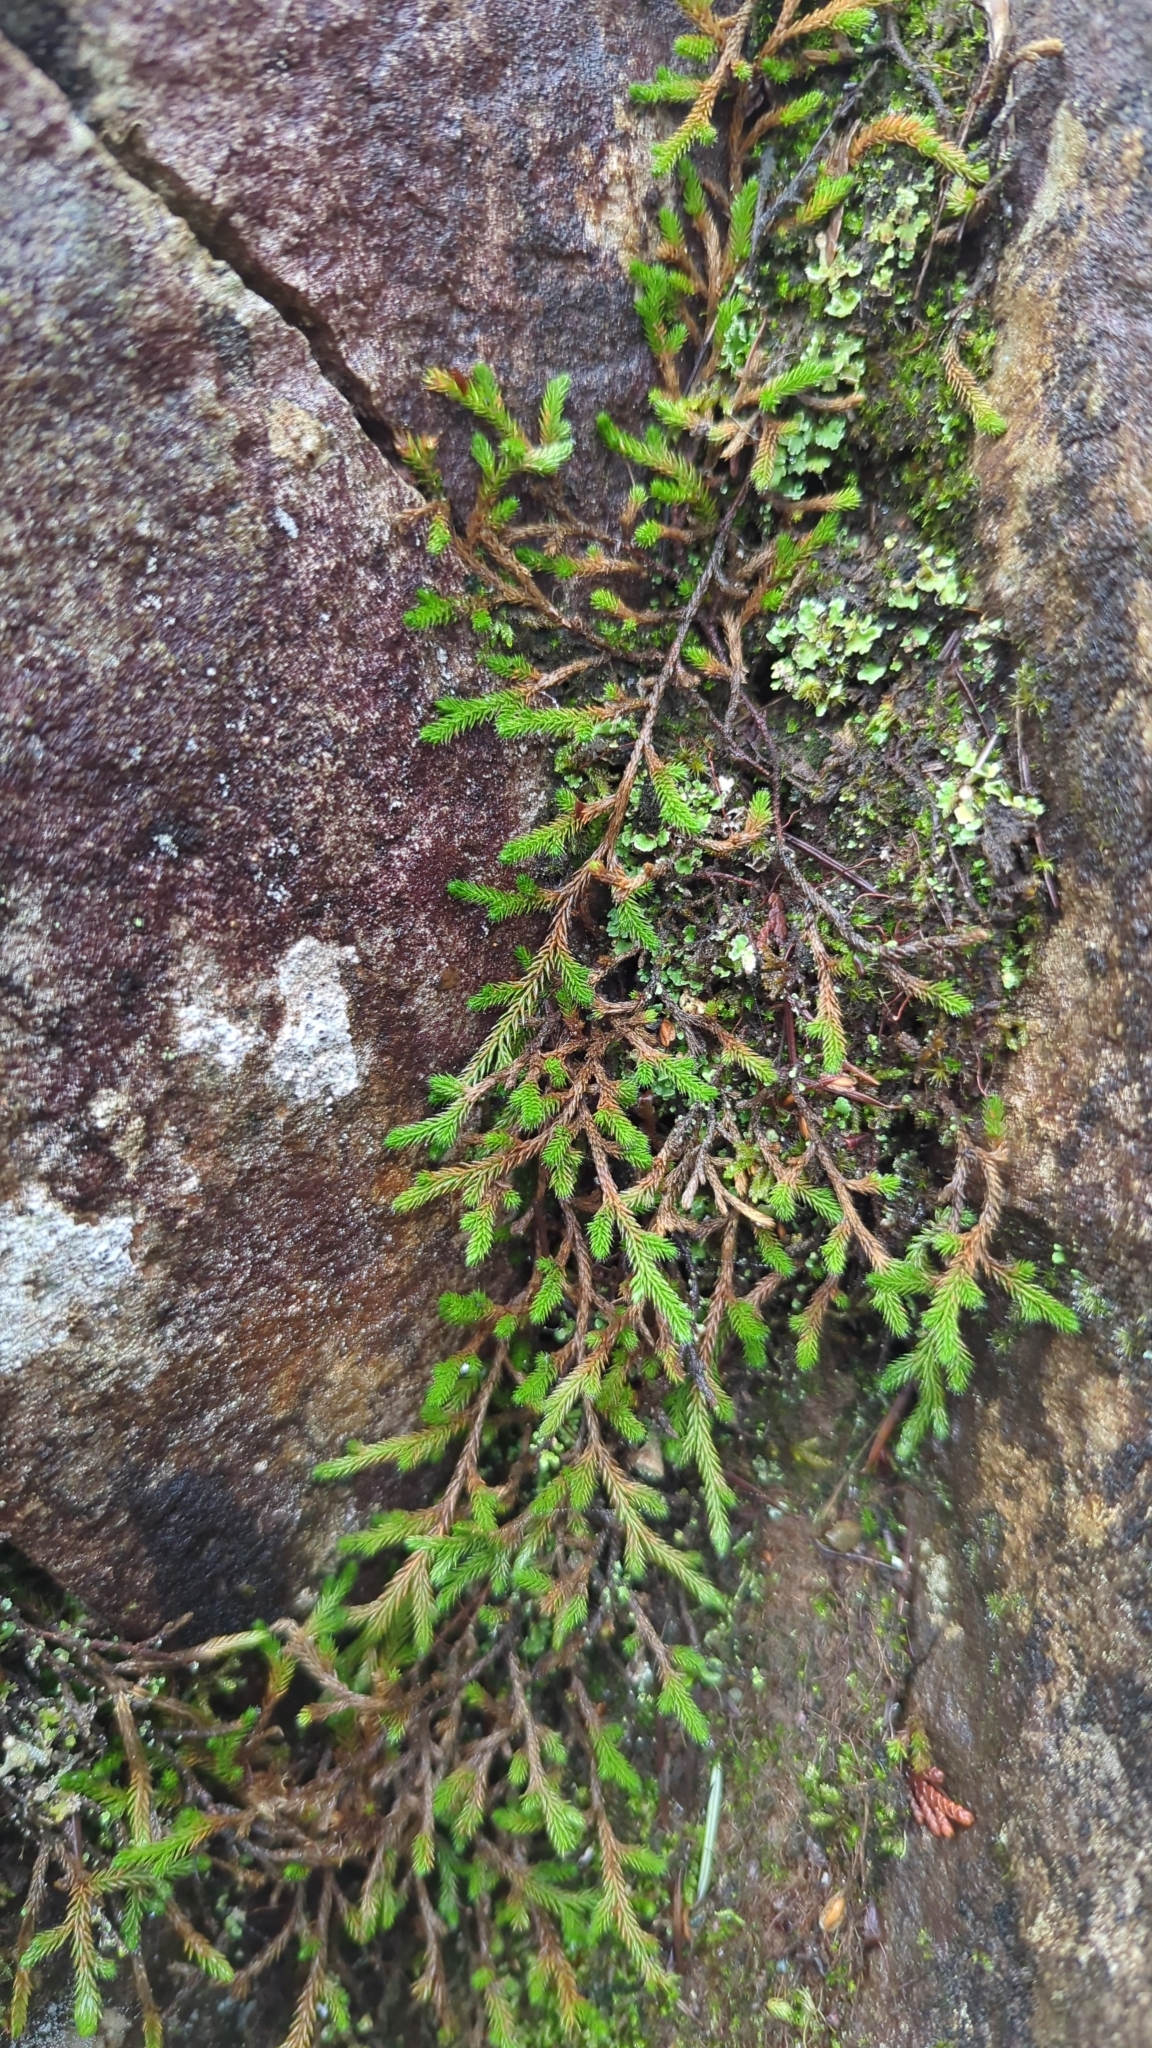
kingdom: Plantae
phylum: Tracheophyta
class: Lycopodiopsida
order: Selaginellales
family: Selaginellaceae
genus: Selaginella
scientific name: Selaginella wallacei
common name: Wallace's selaginella
